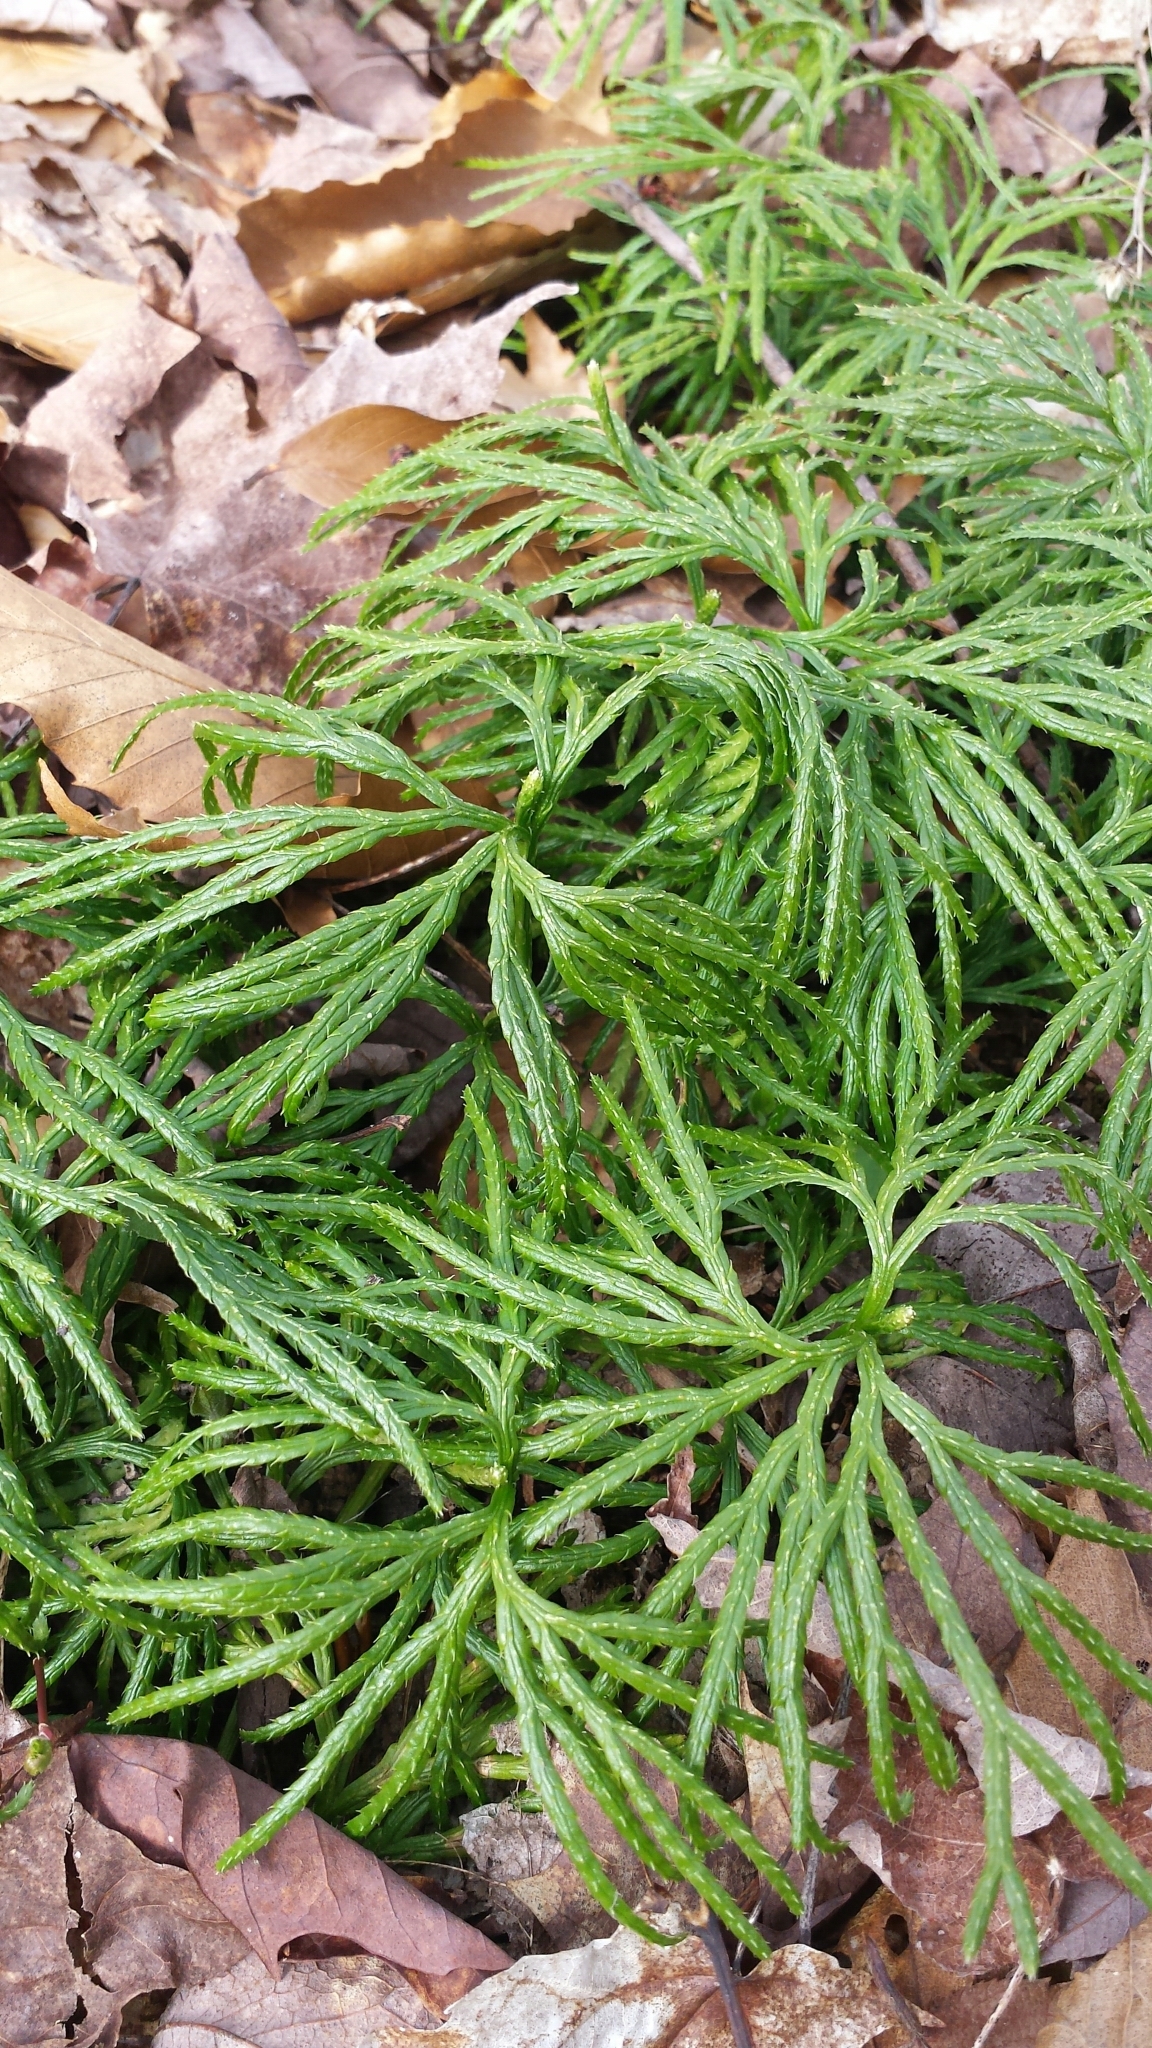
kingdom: Plantae
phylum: Tracheophyta
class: Lycopodiopsida
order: Lycopodiales
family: Lycopodiaceae
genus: Diphasiastrum
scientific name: Diphasiastrum digitatum
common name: Southern running-pine
